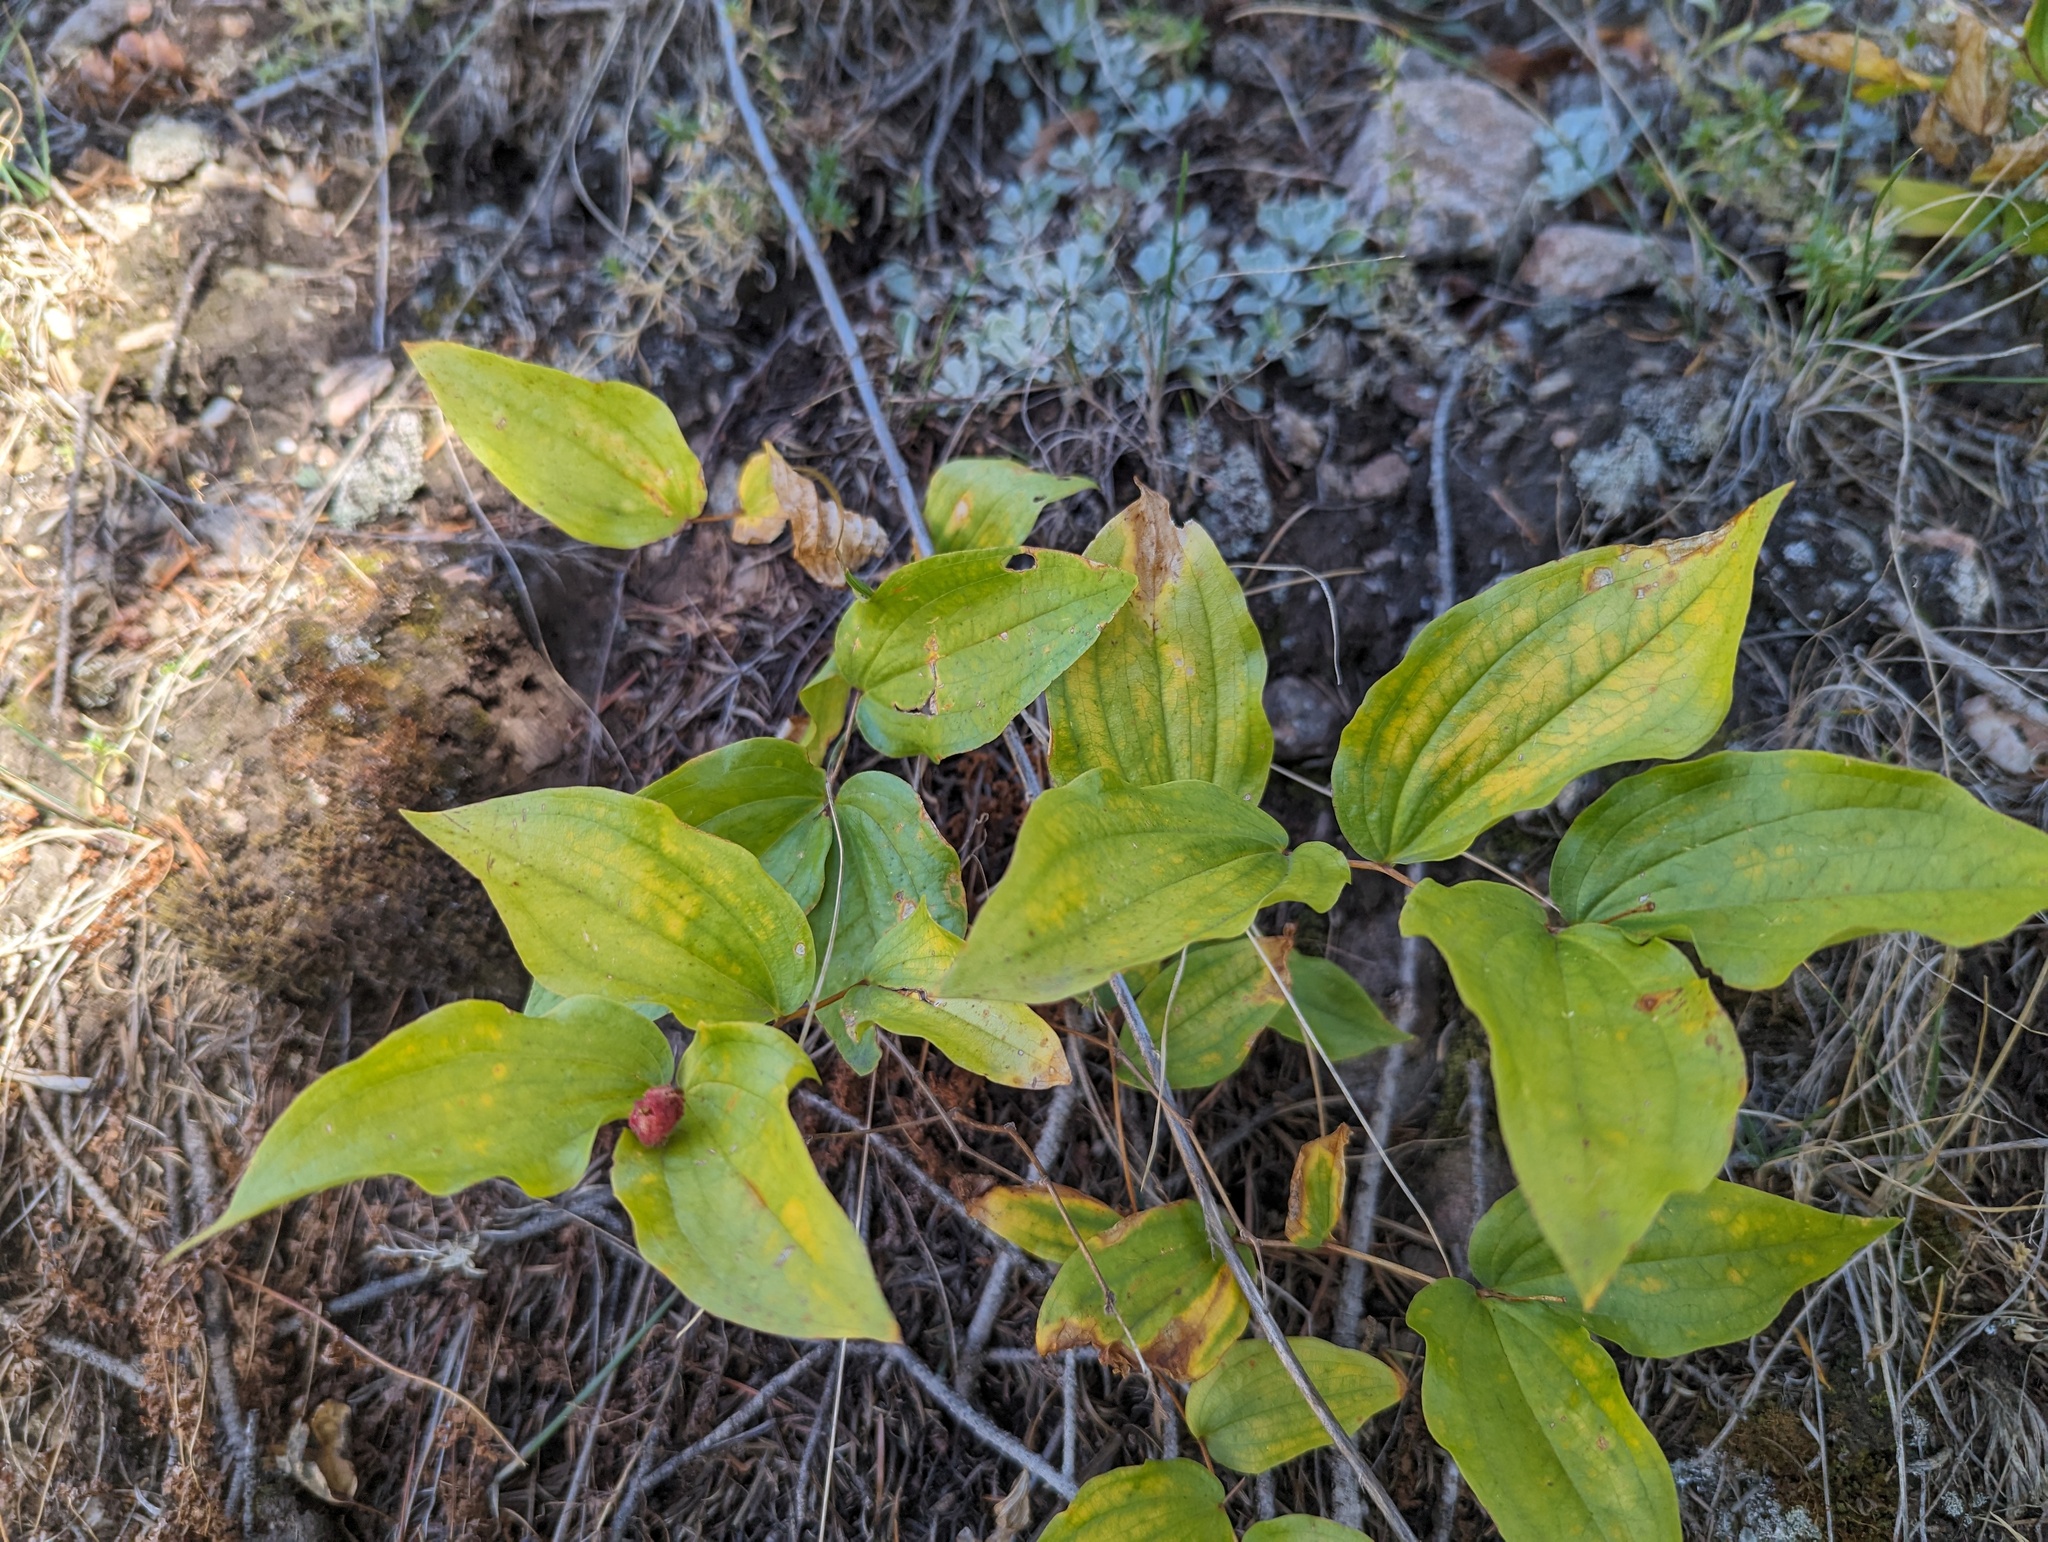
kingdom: Plantae
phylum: Tracheophyta
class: Liliopsida
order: Liliales
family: Liliaceae
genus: Prosartes
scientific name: Prosartes trachycarpa
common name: Rough-fruit fairy-bells
